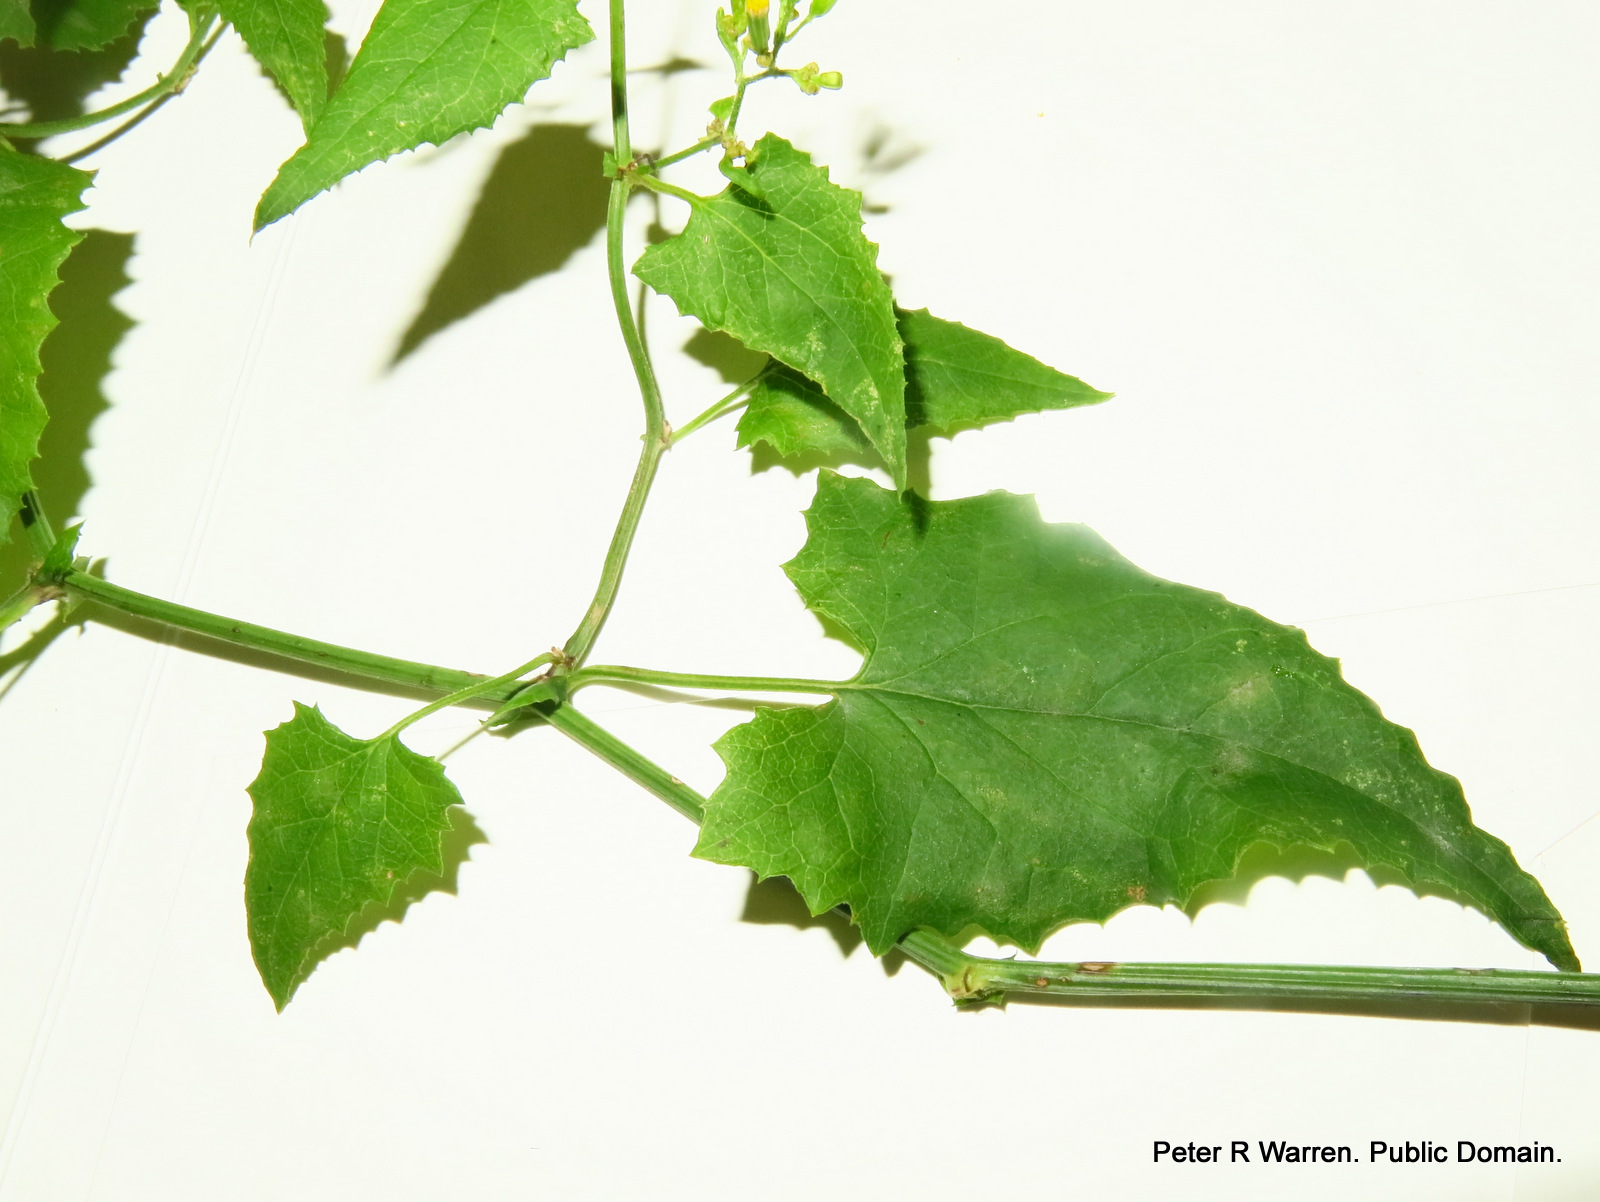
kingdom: Plantae
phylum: Tracheophyta
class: Magnoliopsida
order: Asterales
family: Asteraceae
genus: Senecio
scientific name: Senecio deltoideus
